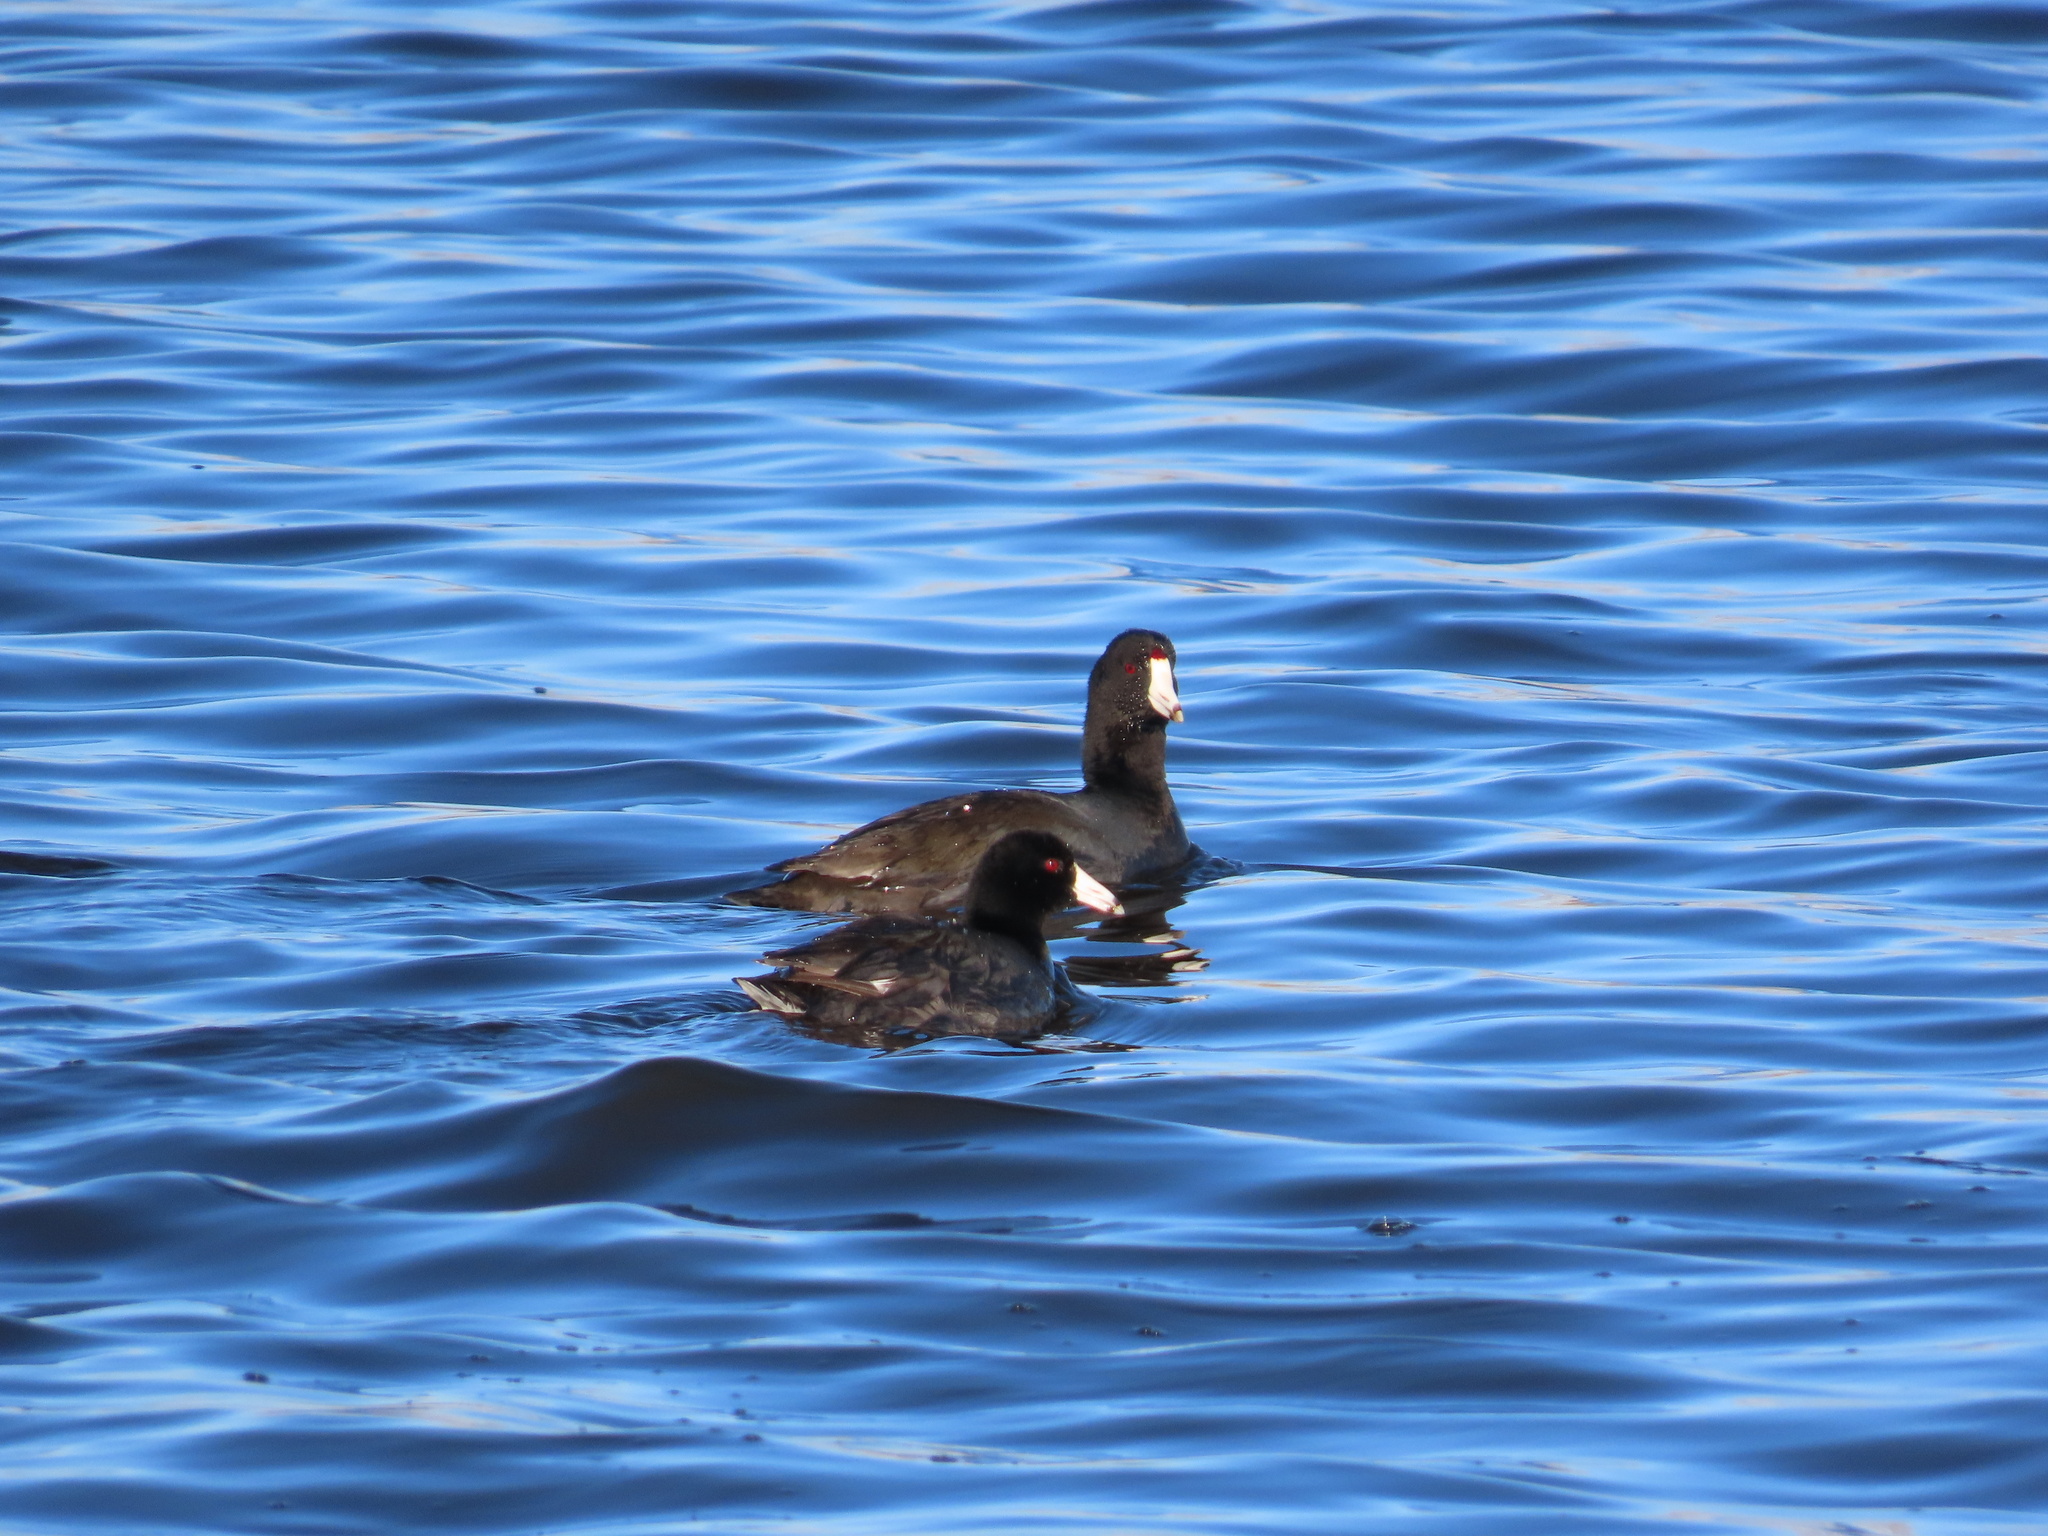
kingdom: Animalia
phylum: Chordata
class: Aves
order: Gruiformes
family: Rallidae
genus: Fulica
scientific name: Fulica americana
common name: American coot
